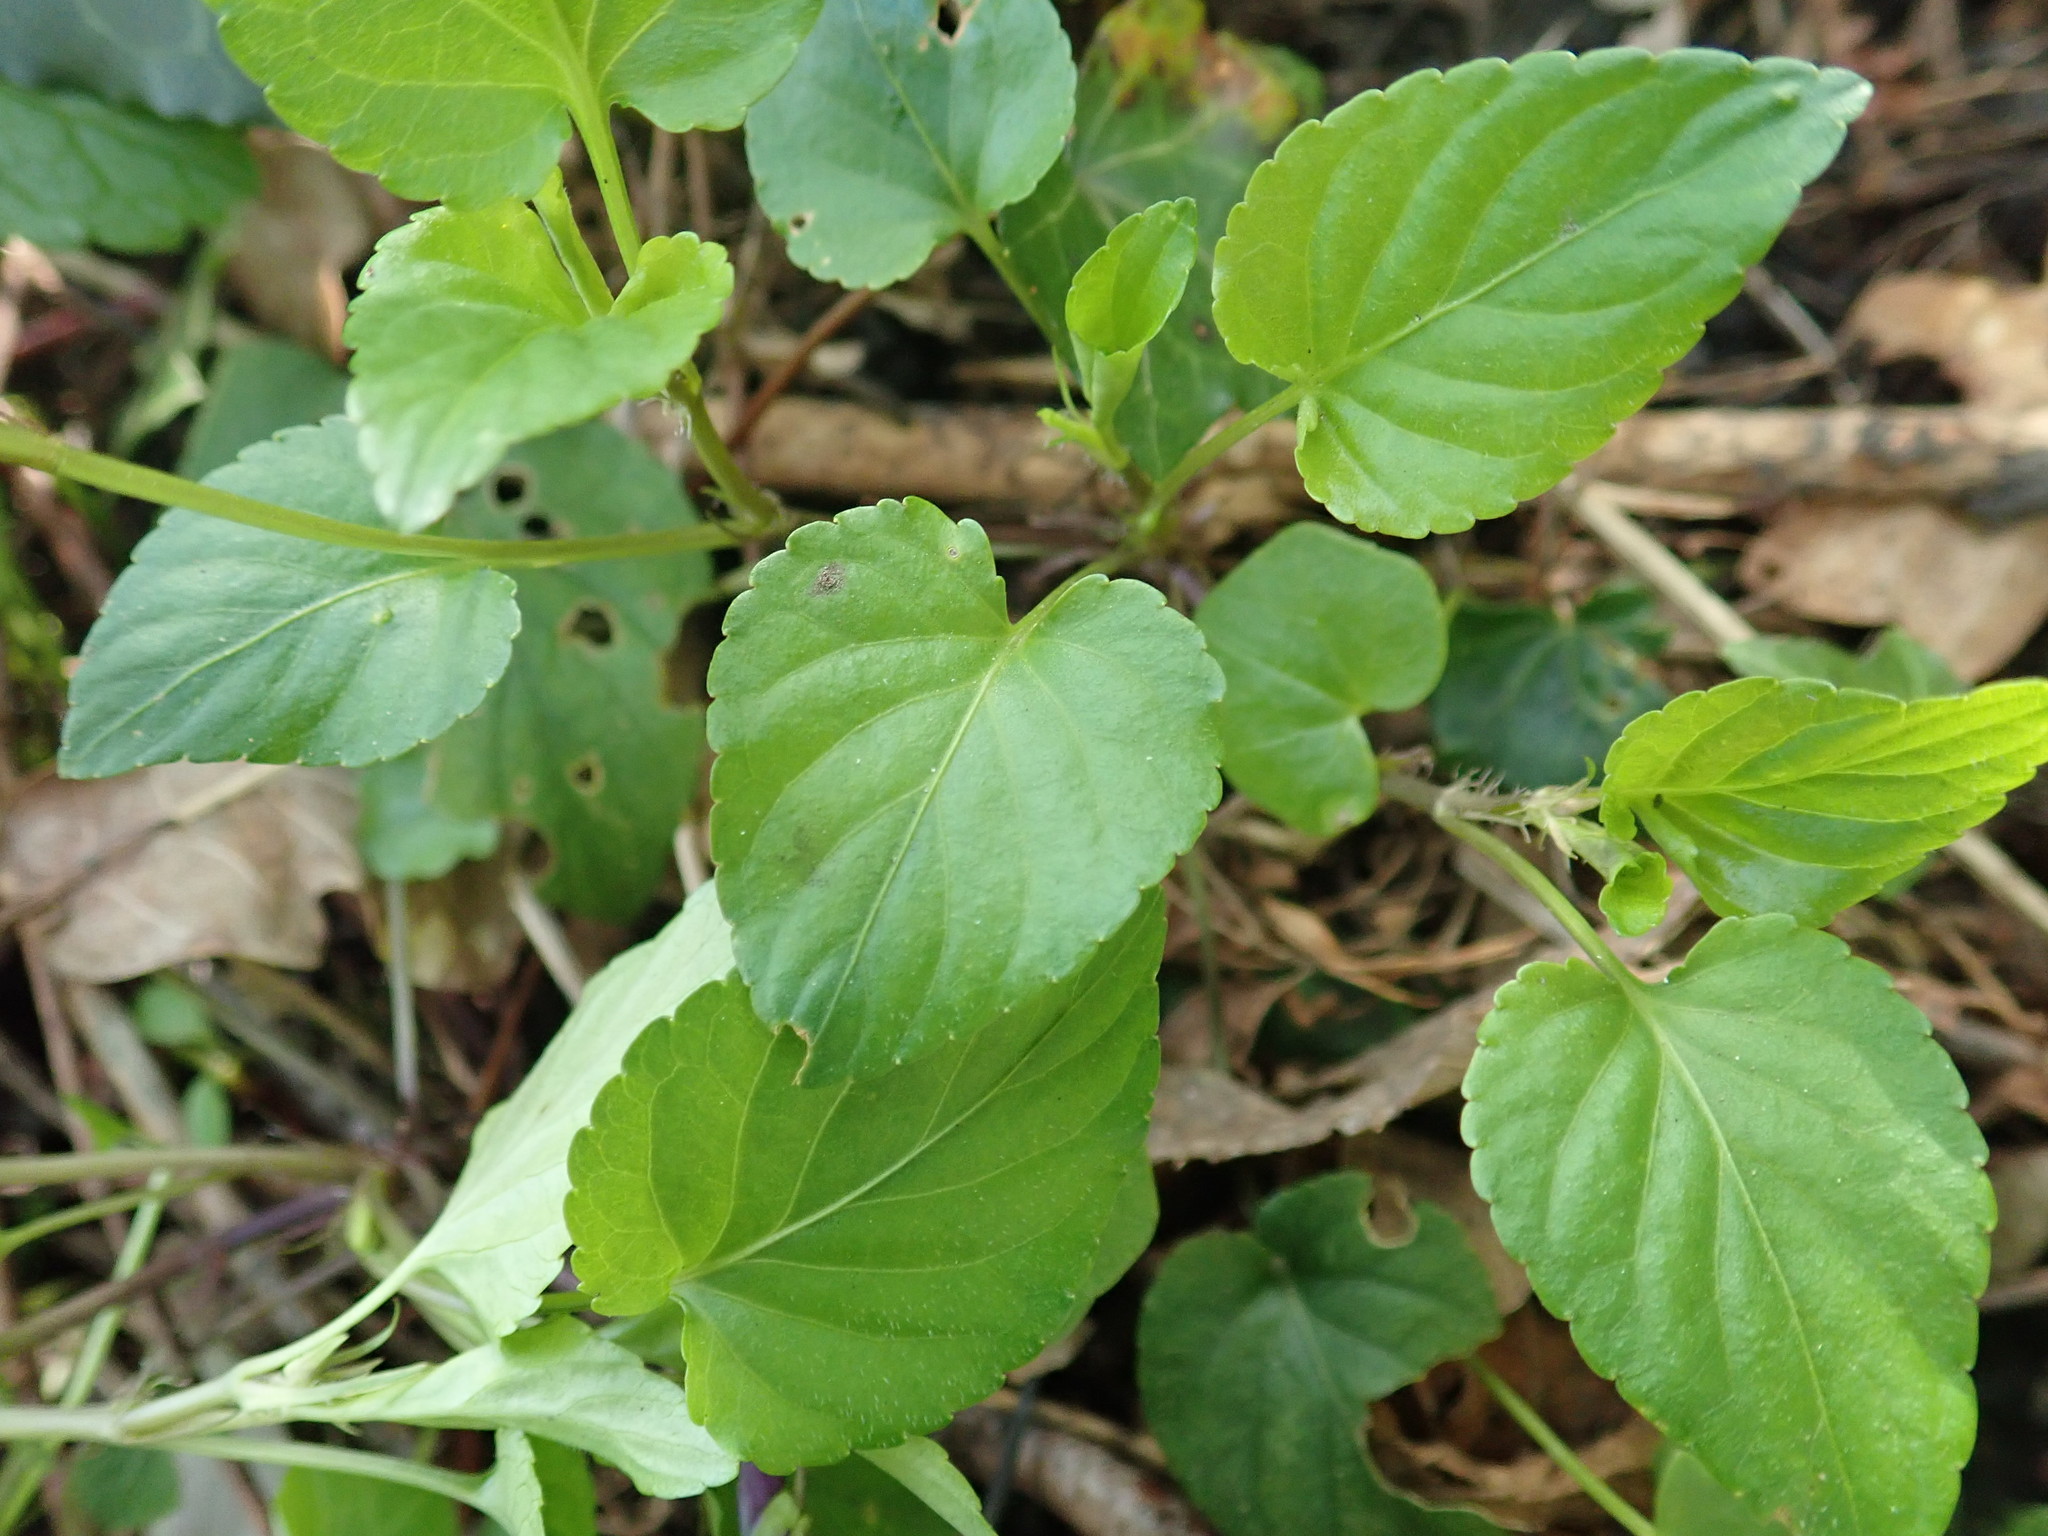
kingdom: Plantae
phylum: Tracheophyta
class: Magnoliopsida
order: Malpighiales
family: Violaceae
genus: Viola
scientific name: Viola reichenbachiana
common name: Early dog-violet
